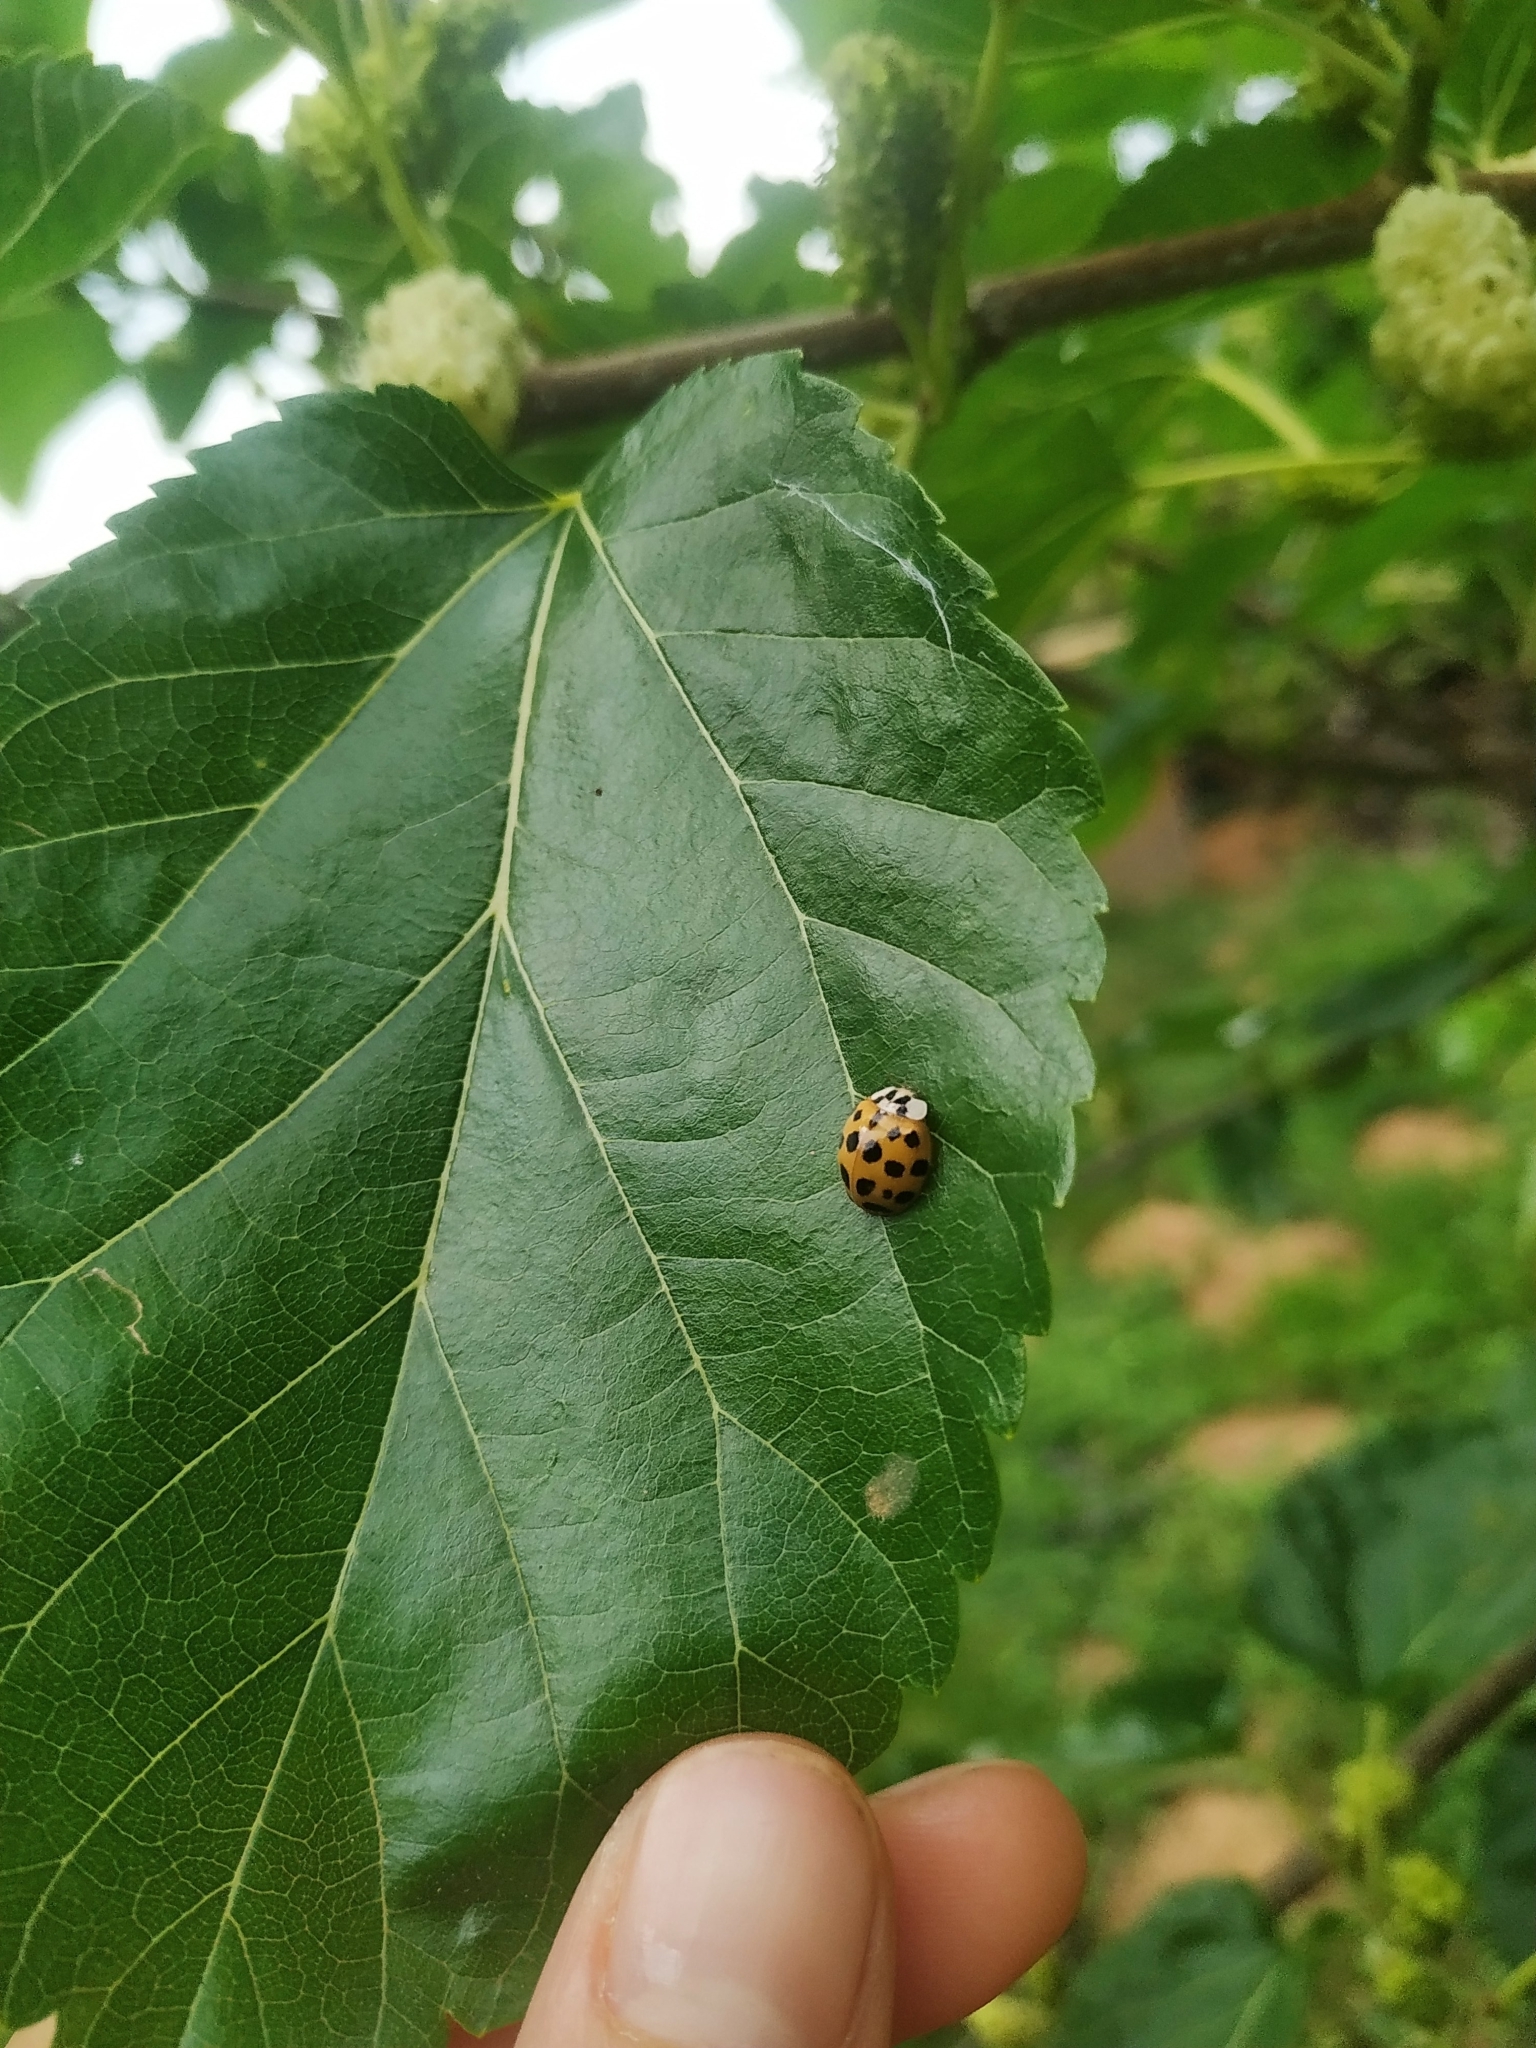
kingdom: Animalia
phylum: Arthropoda
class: Insecta
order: Coleoptera
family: Coccinellidae
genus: Harmonia
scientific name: Harmonia axyridis
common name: Harlequin ladybird
